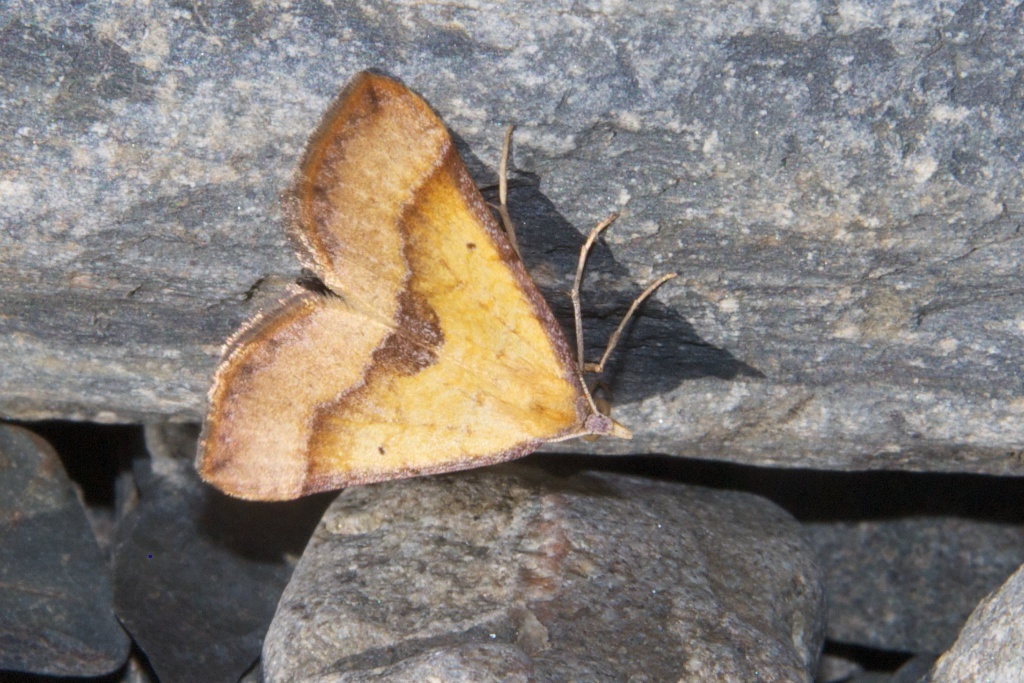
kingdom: Animalia
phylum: Arthropoda
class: Insecta
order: Lepidoptera
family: Geometridae
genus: Anachloris
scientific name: Anachloris subochraria
